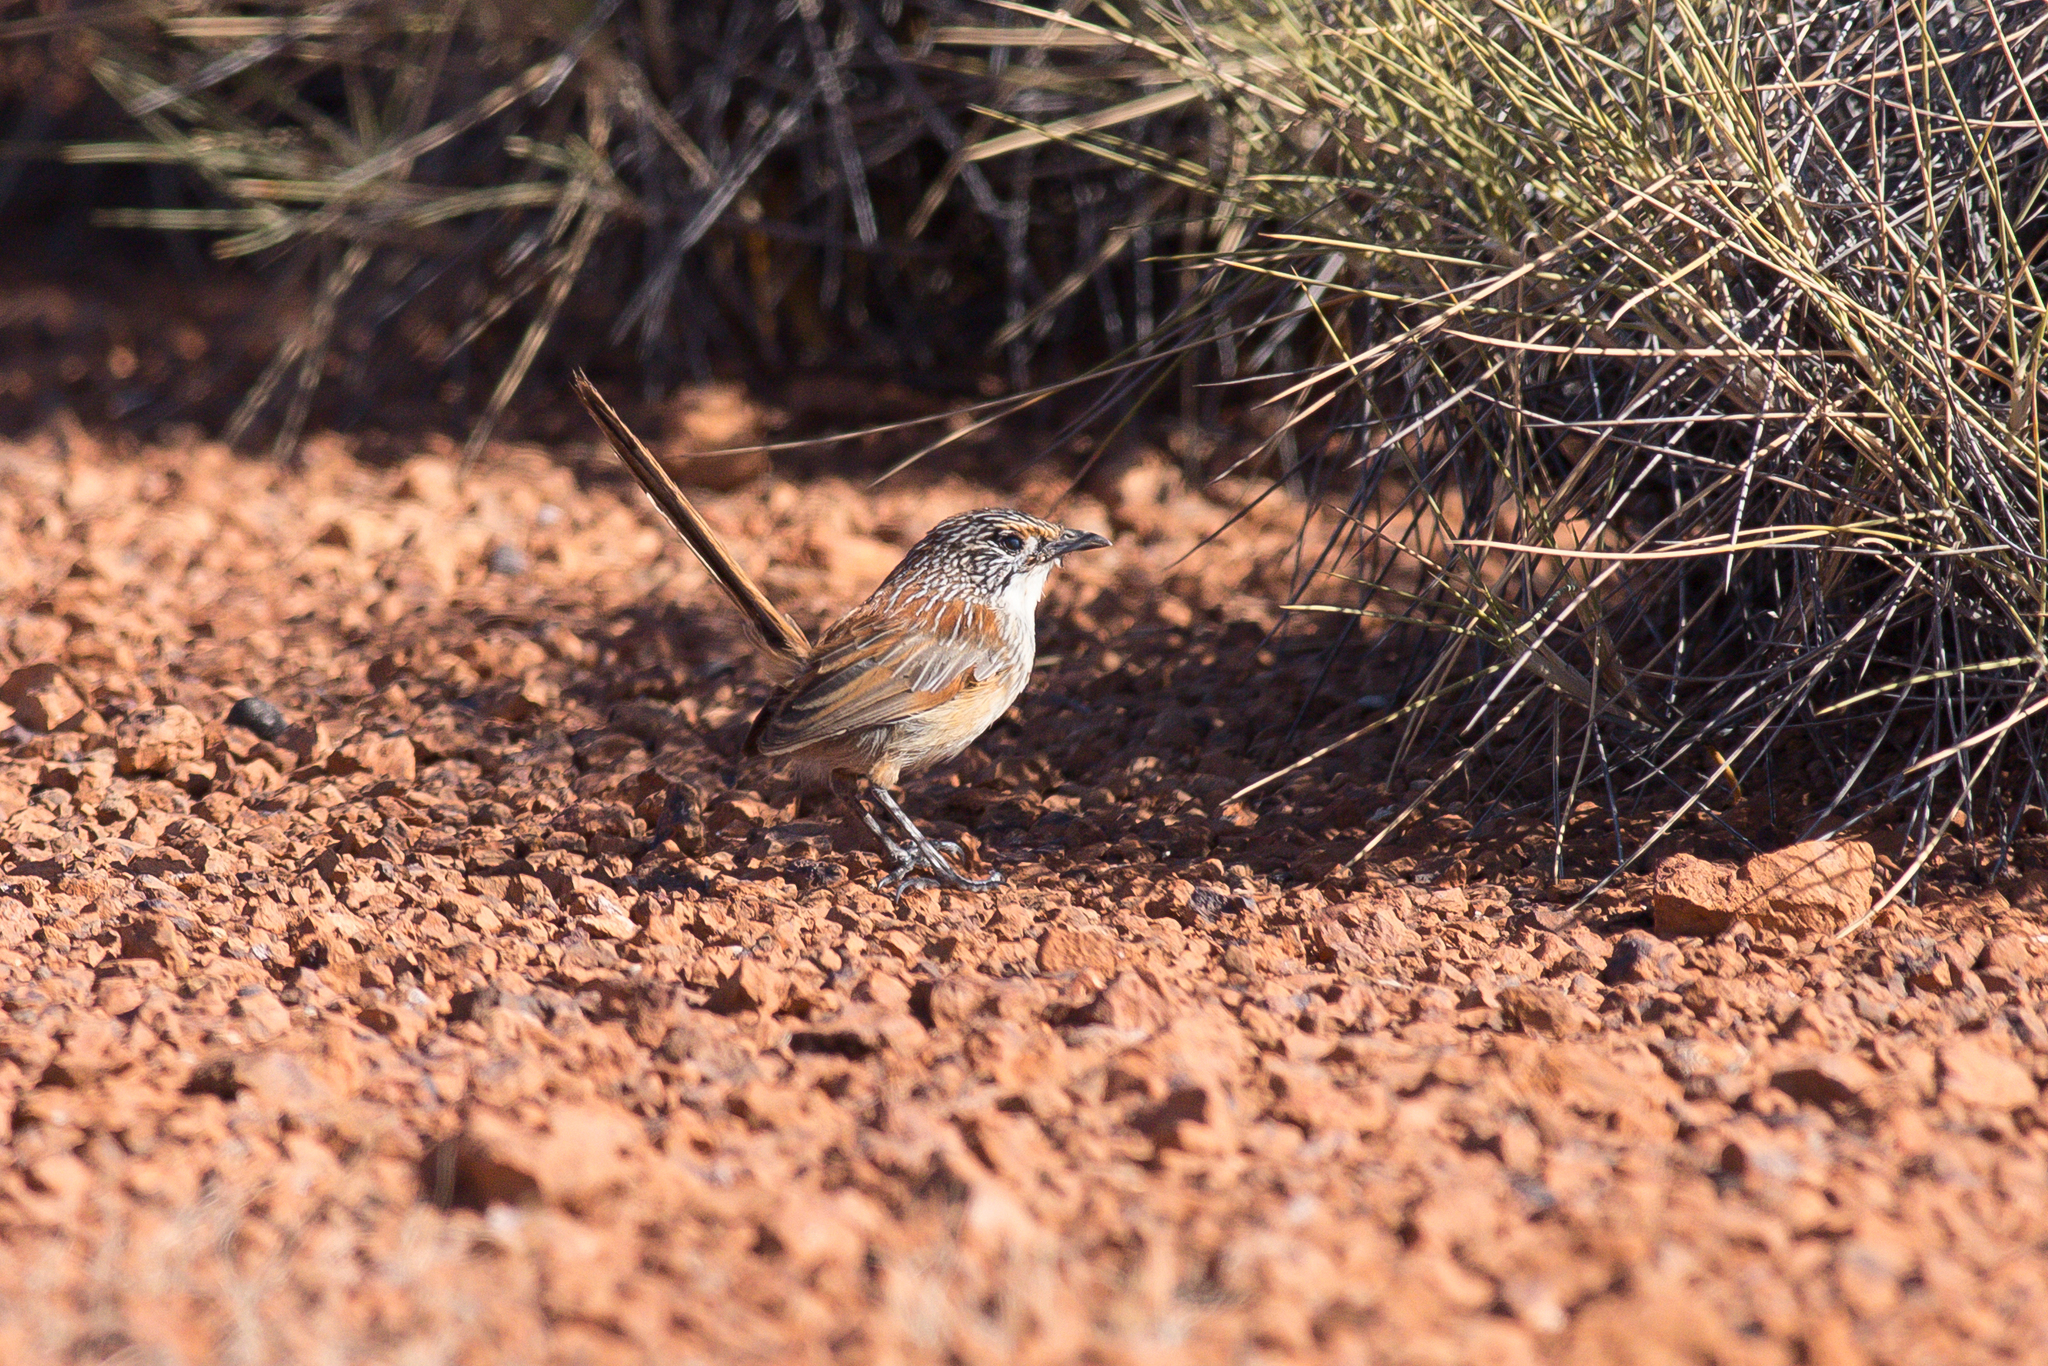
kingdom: Animalia
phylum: Chordata
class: Aves
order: Passeriformes
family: Maluridae
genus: Amytornis
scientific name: Amytornis rowleyi
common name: Rusty grasswren
